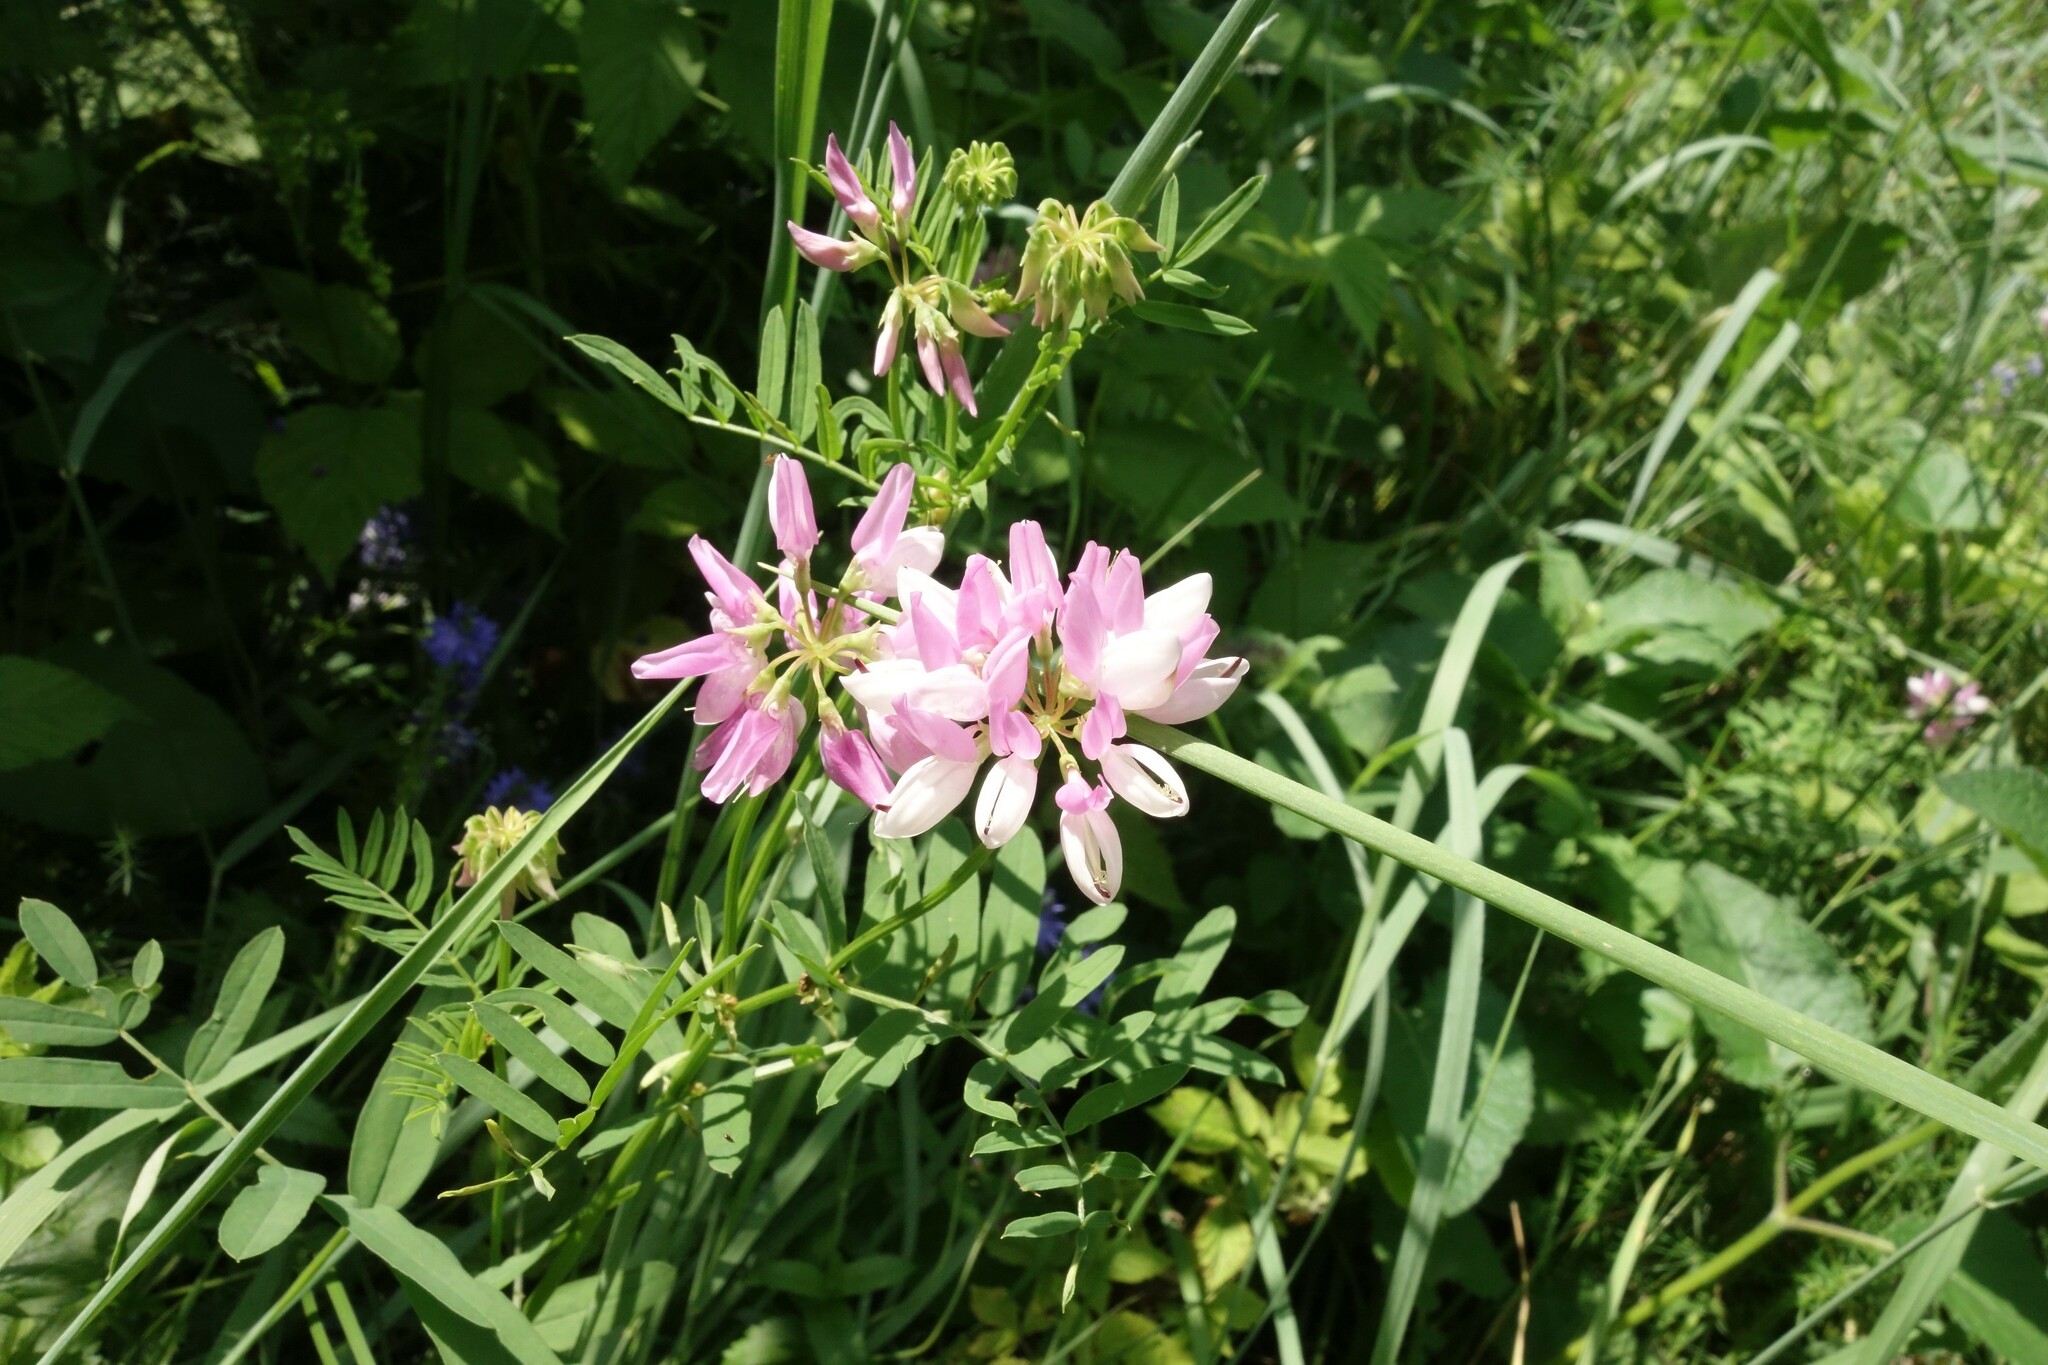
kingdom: Plantae
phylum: Tracheophyta
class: Magnoliopsida
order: Fabales
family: Fabaceae
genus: Coronilla
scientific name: Coronilla varia
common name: Crownvetch
